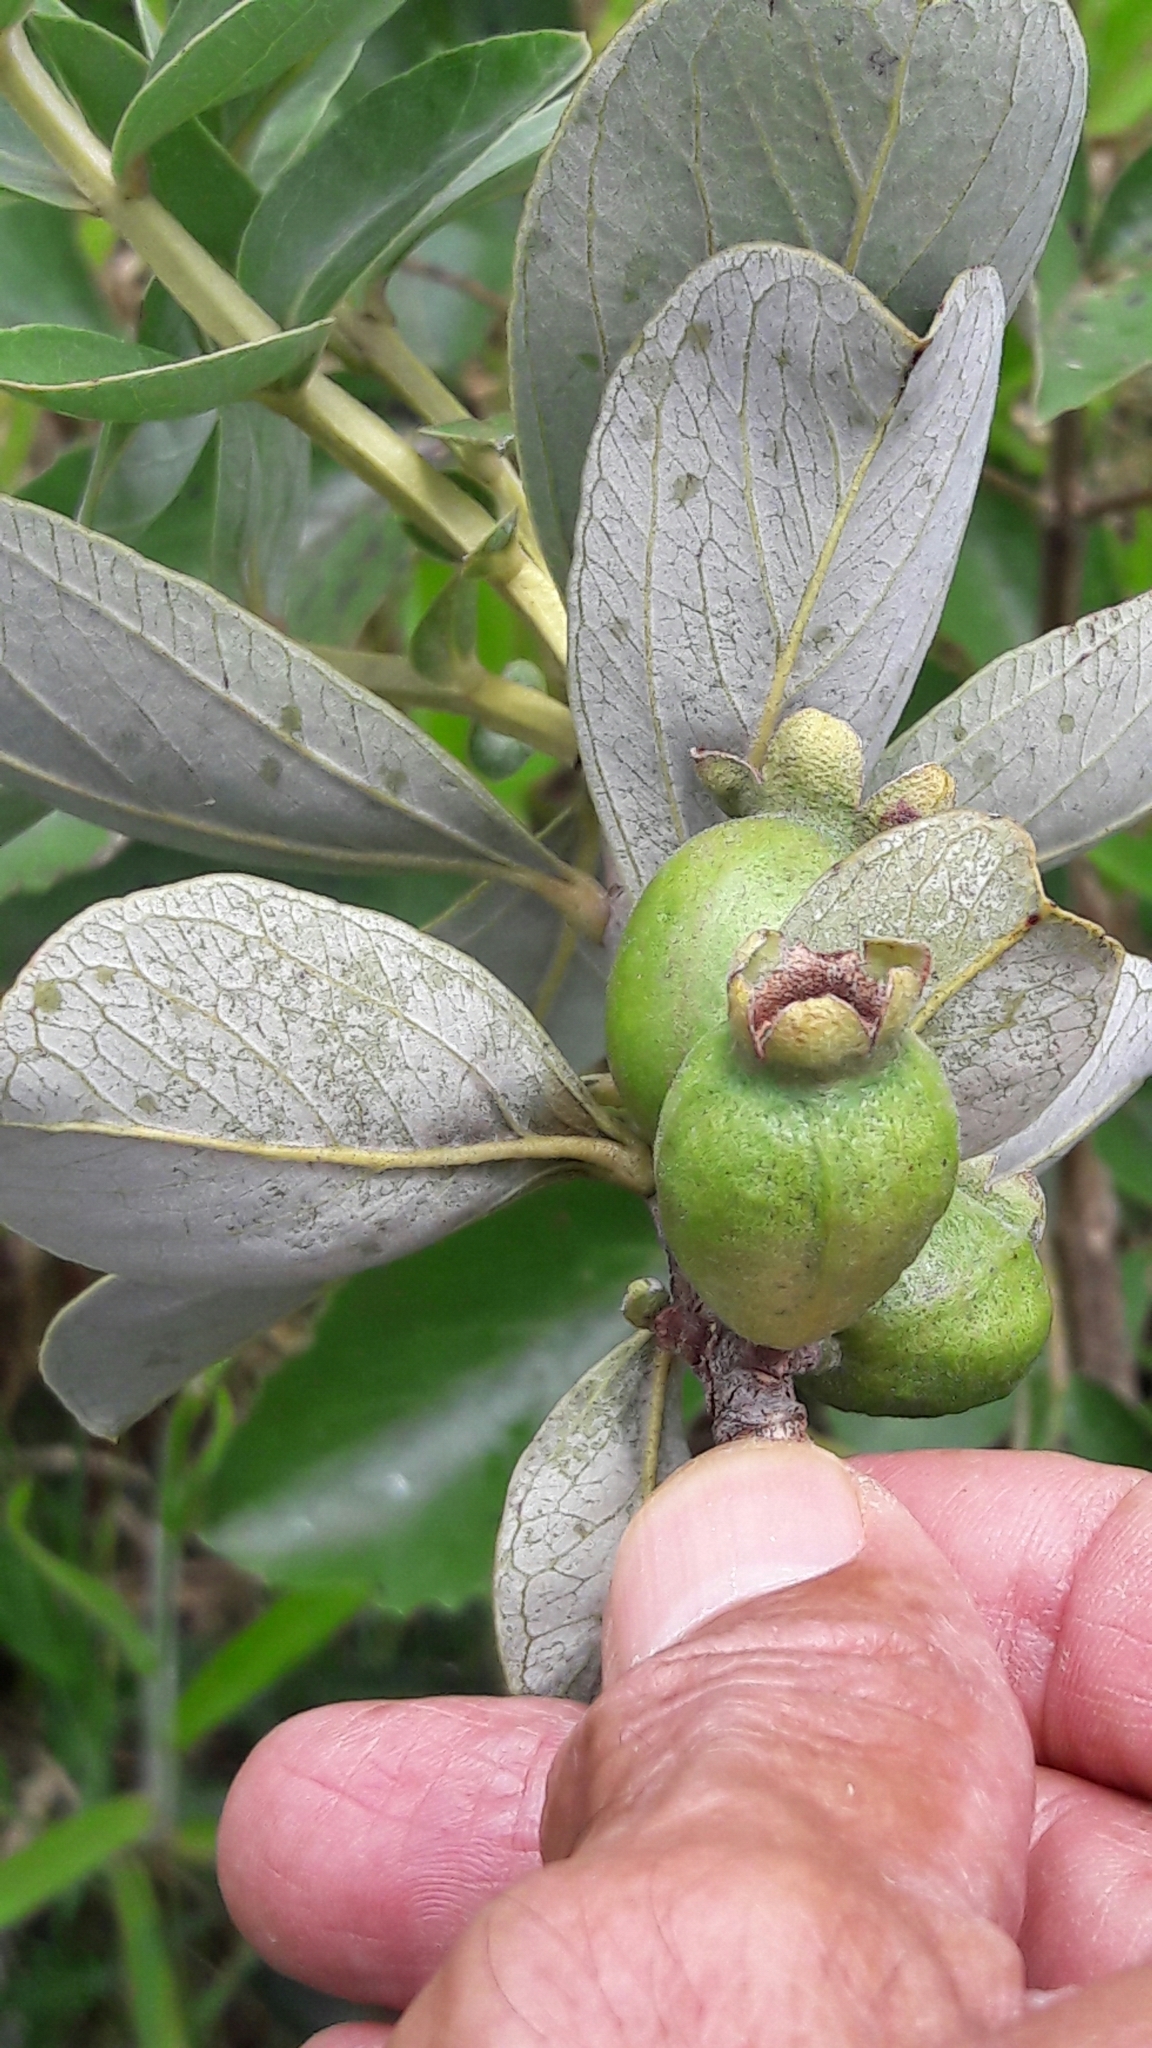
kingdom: Plantae
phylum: Tracheophyta
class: Magnoliopsida
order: Myrtales
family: Myrtaceae
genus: Psidium
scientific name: Psidium grandifolium
